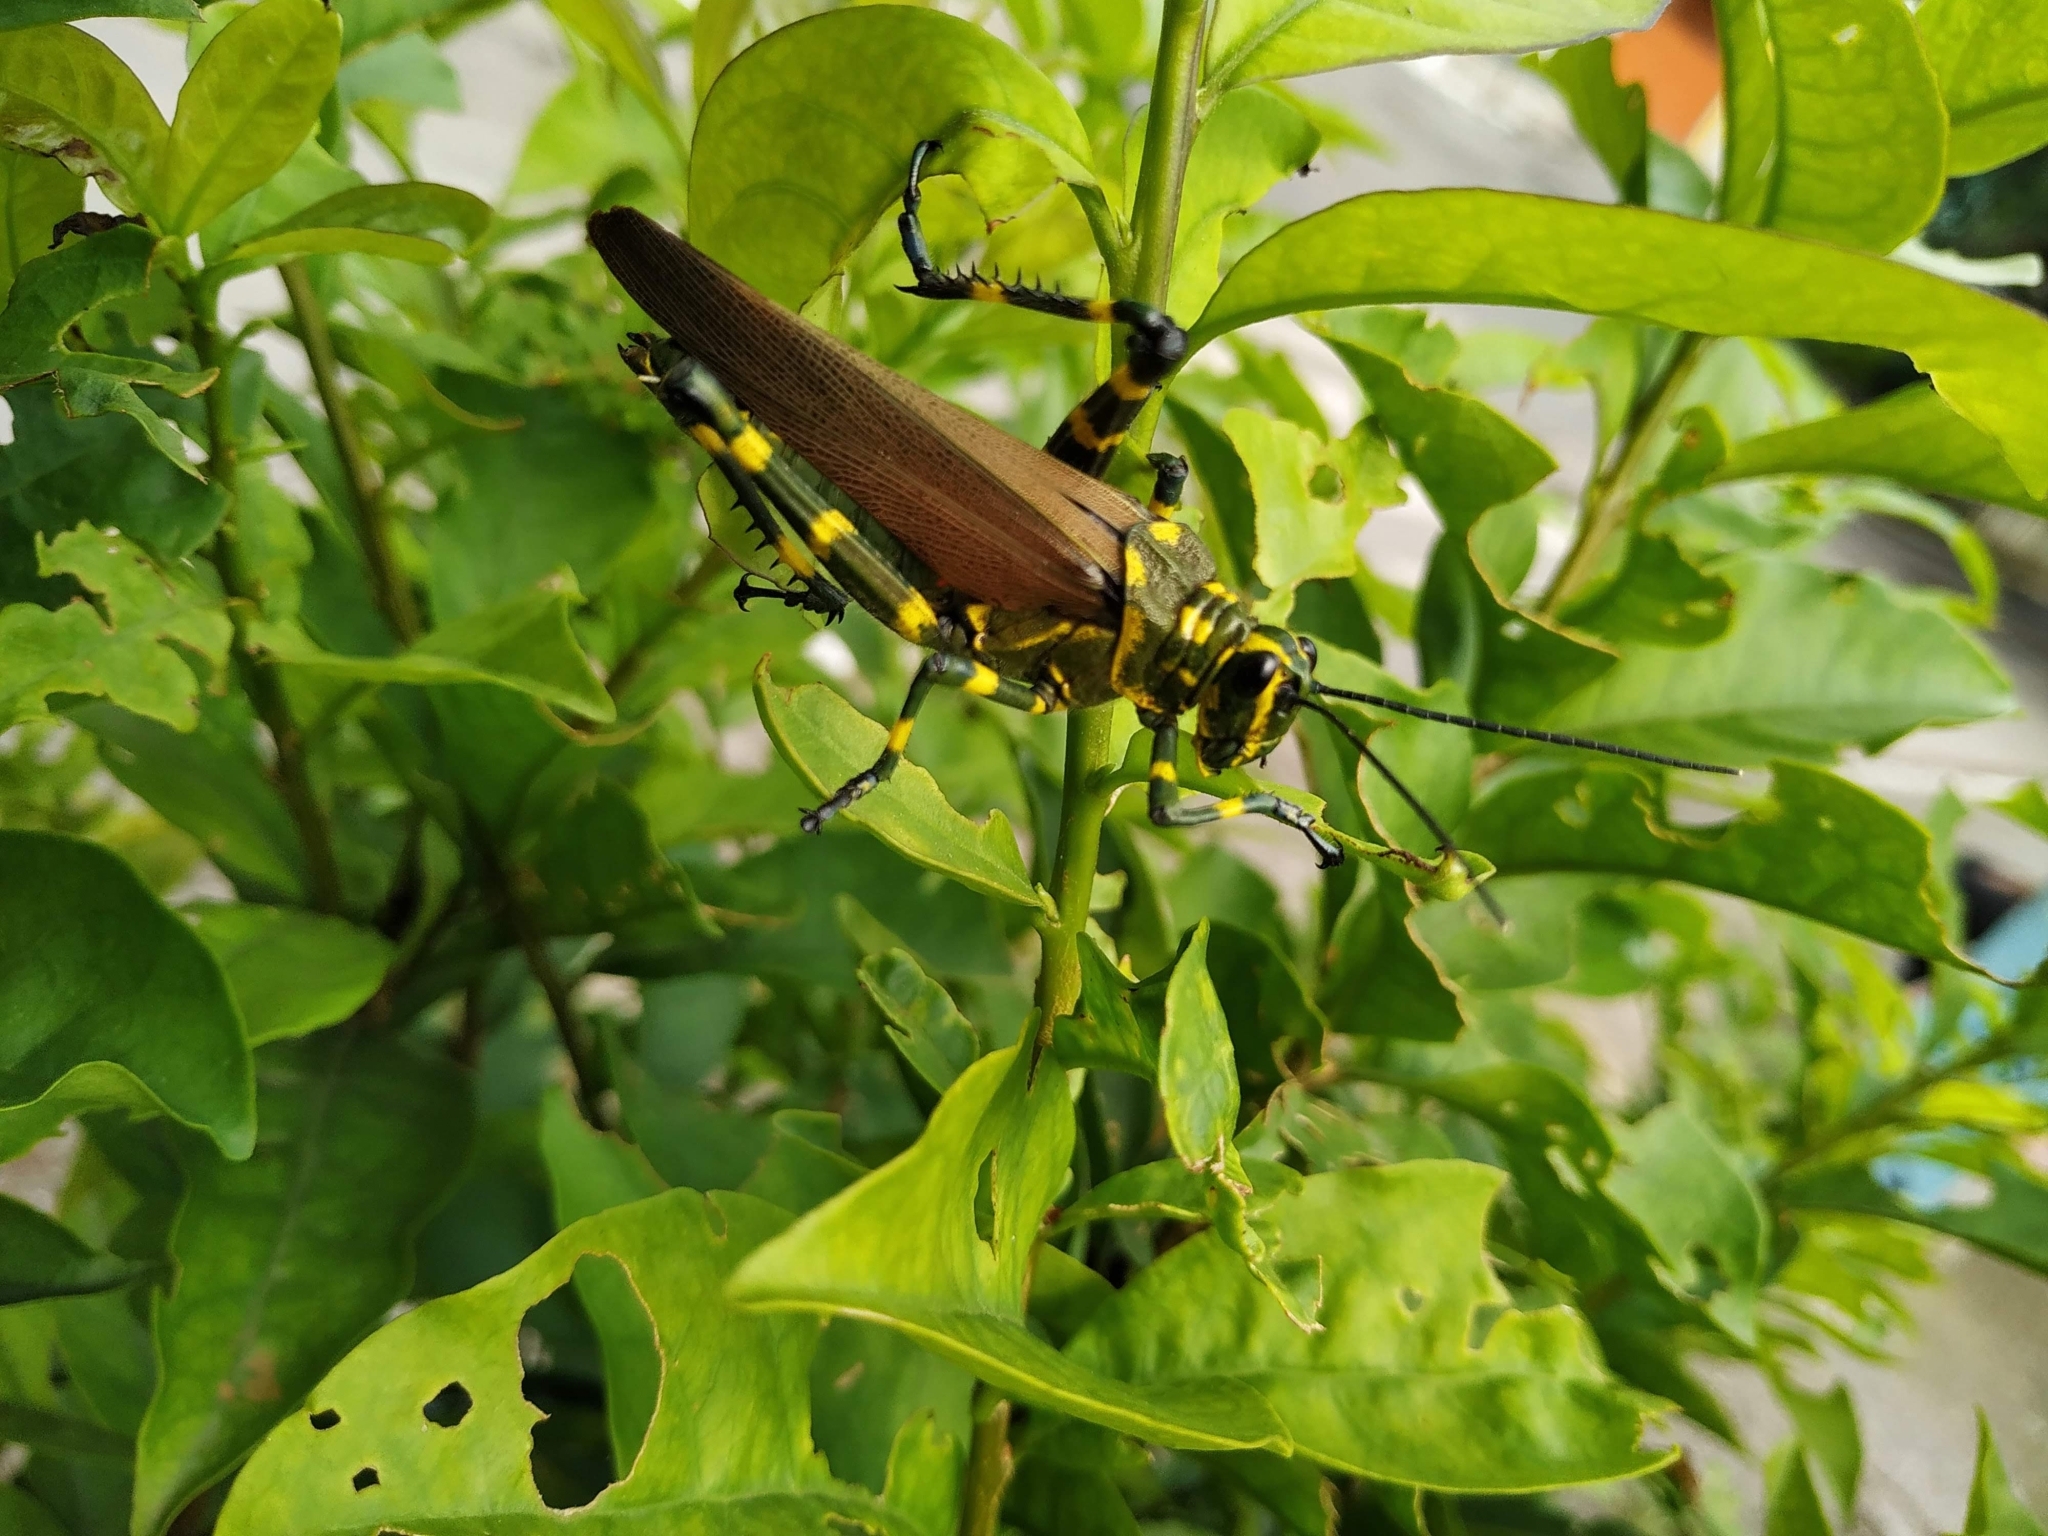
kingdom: Animalia
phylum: Arthropoda
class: Insecta
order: Orthoptera
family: Romaleidae
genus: Chromacris
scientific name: Chromacris speciosa
